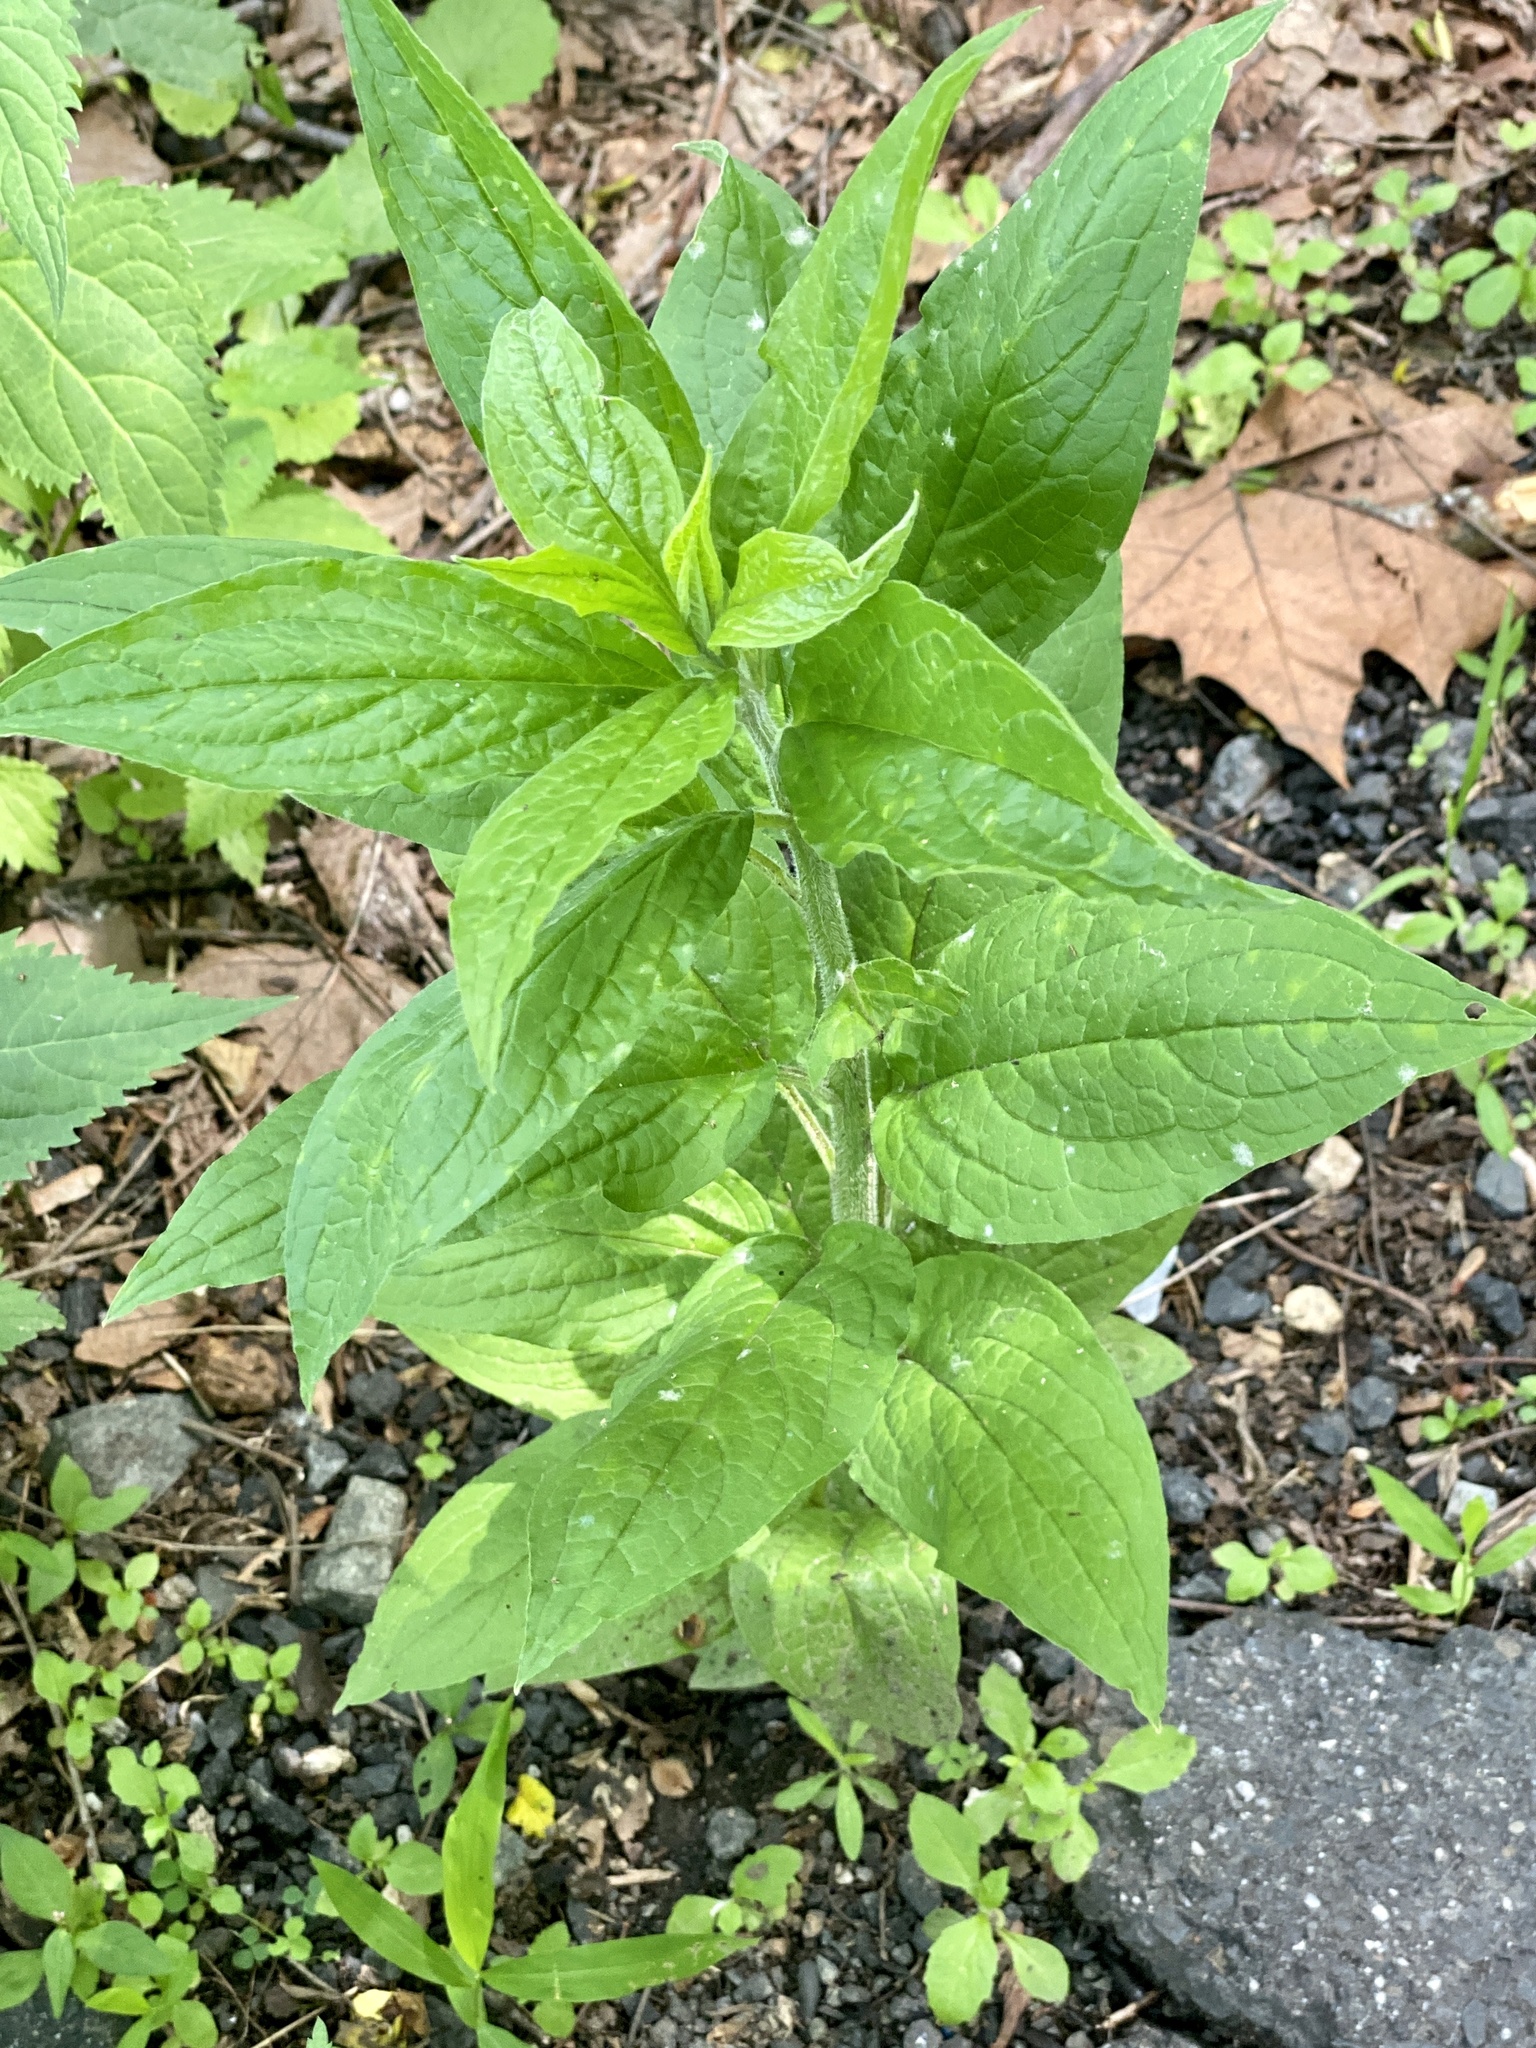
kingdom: Plantae
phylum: Tracheophyta
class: Magnoliopsida
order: Boraginales
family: Boraginaceae
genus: Hackelia
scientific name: Hackelia virginiana
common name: Beggar's-lice
